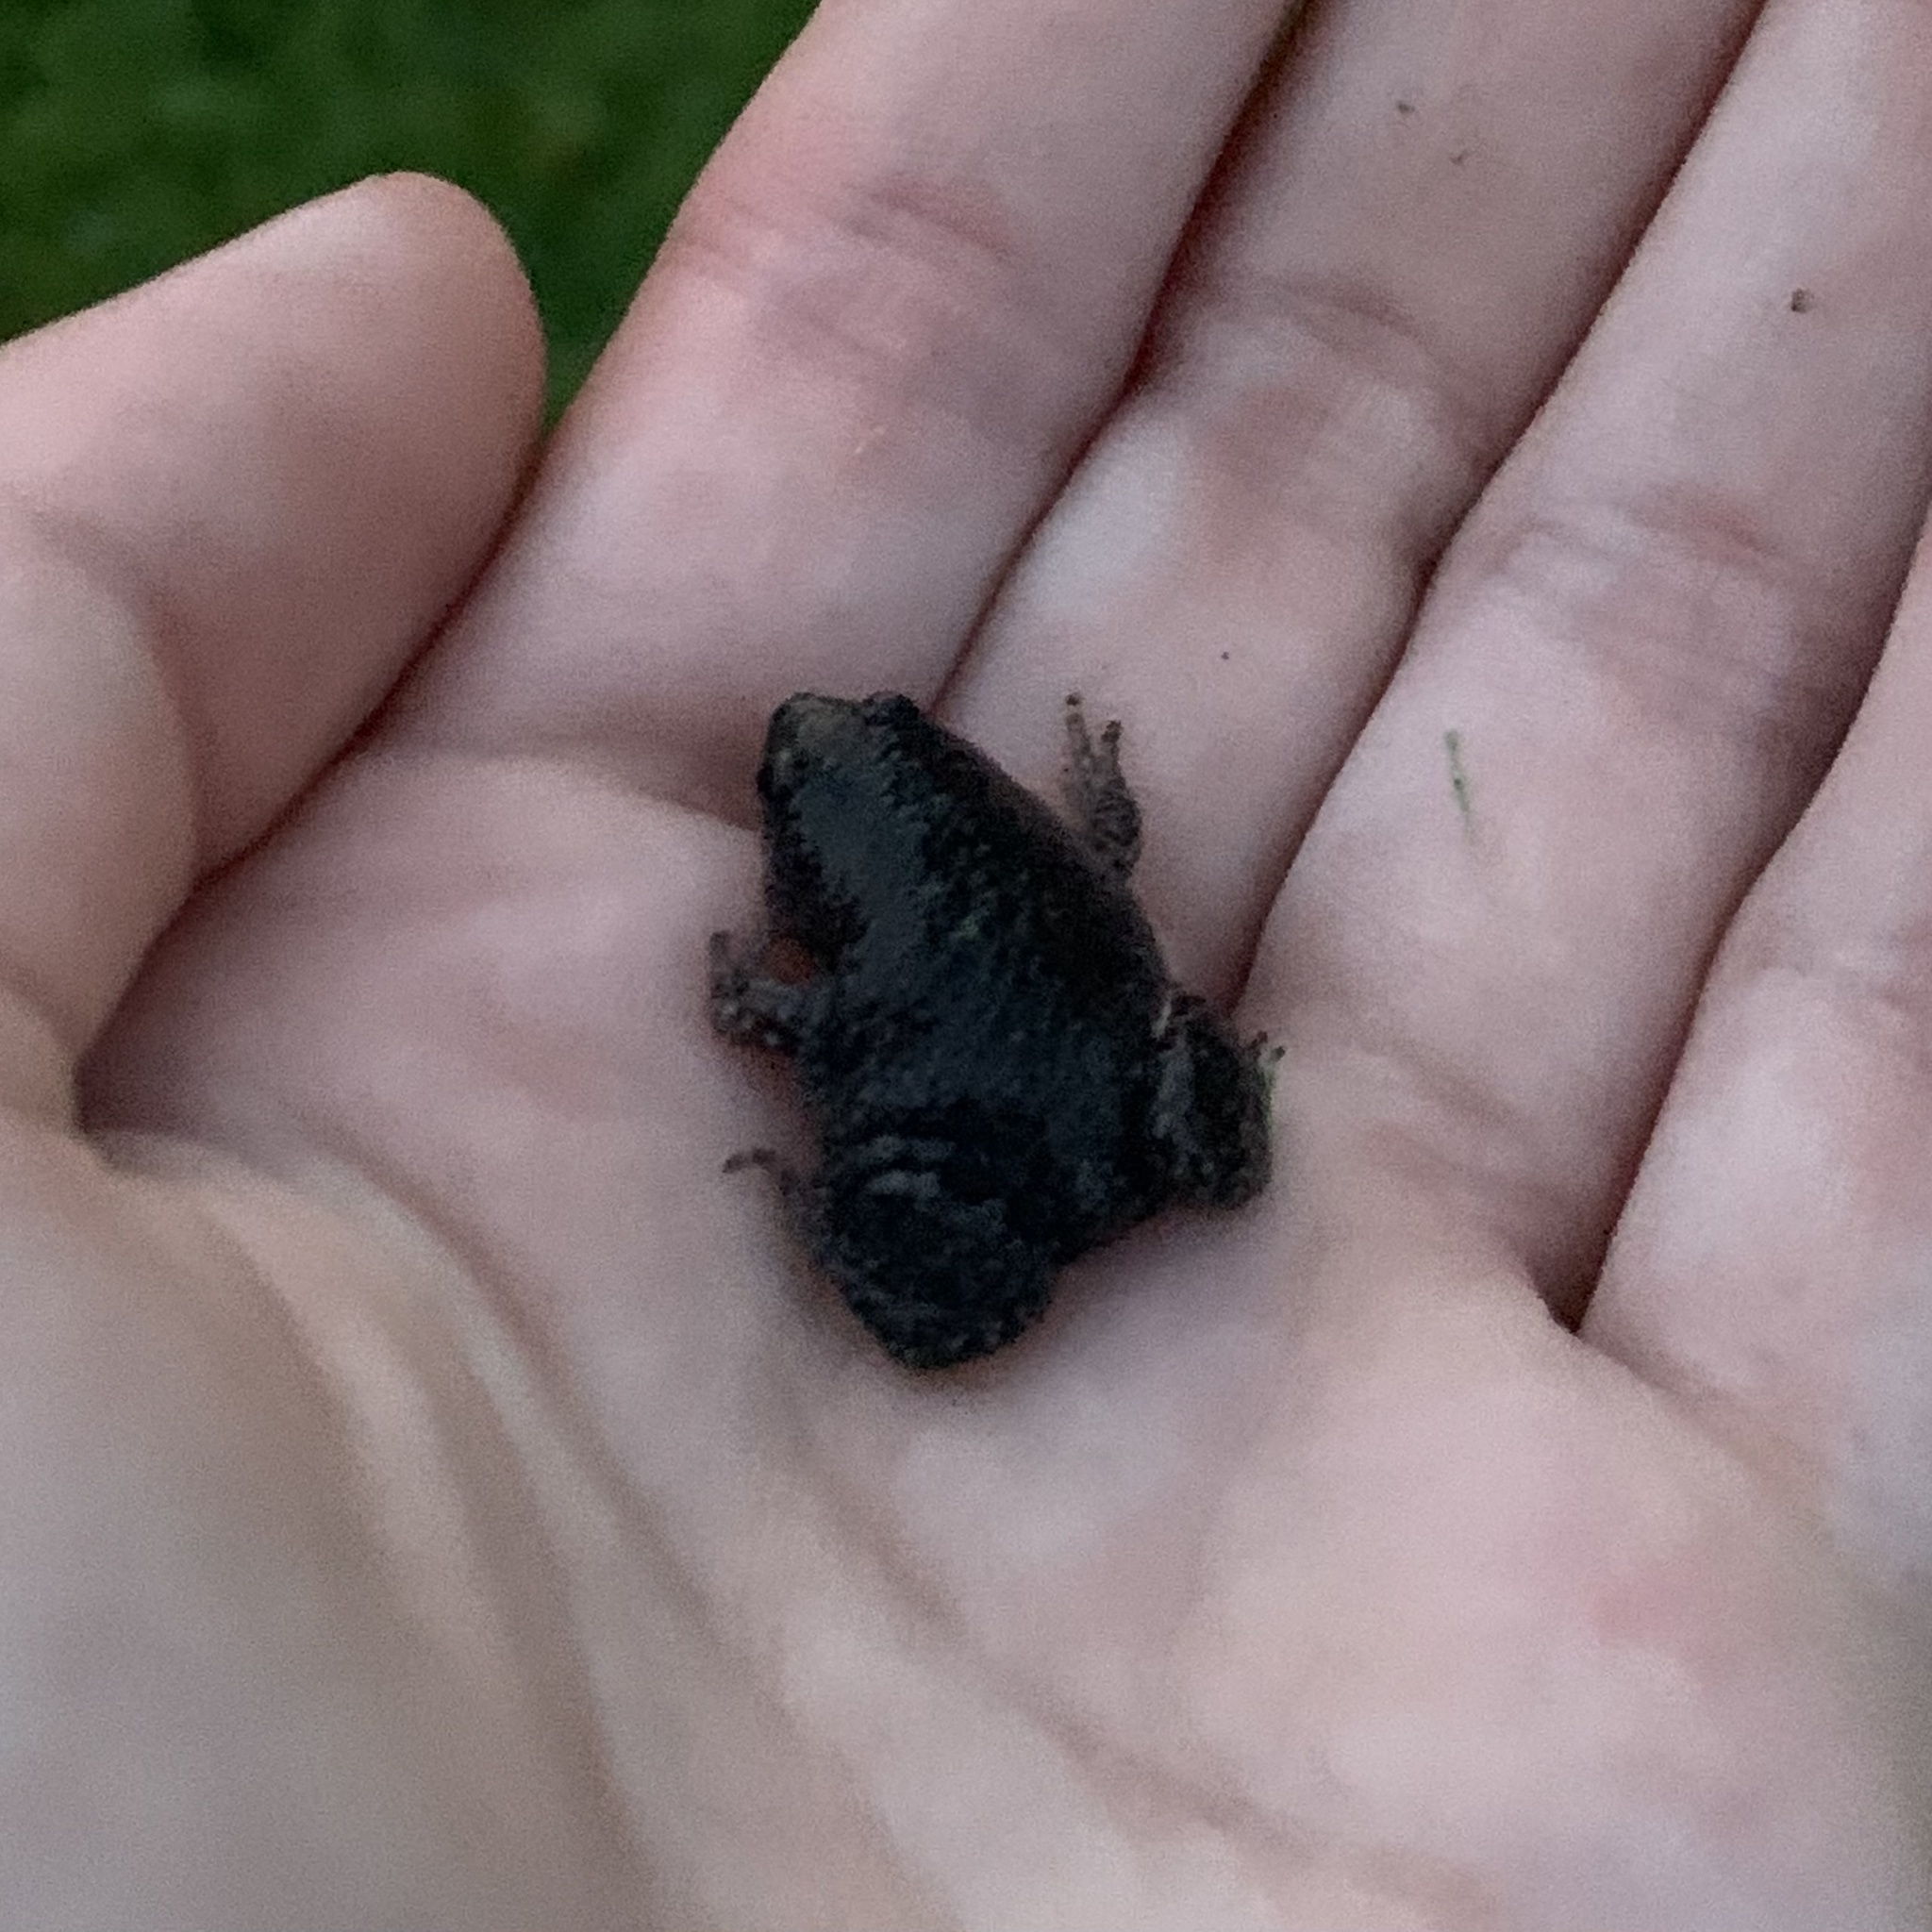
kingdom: Animalia
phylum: Chordata
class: Amphibia
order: Anura
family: Microhylidae
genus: Gastrophryne
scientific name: Gastrophryne carolinensis
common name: Eastern narrowmouth toad
